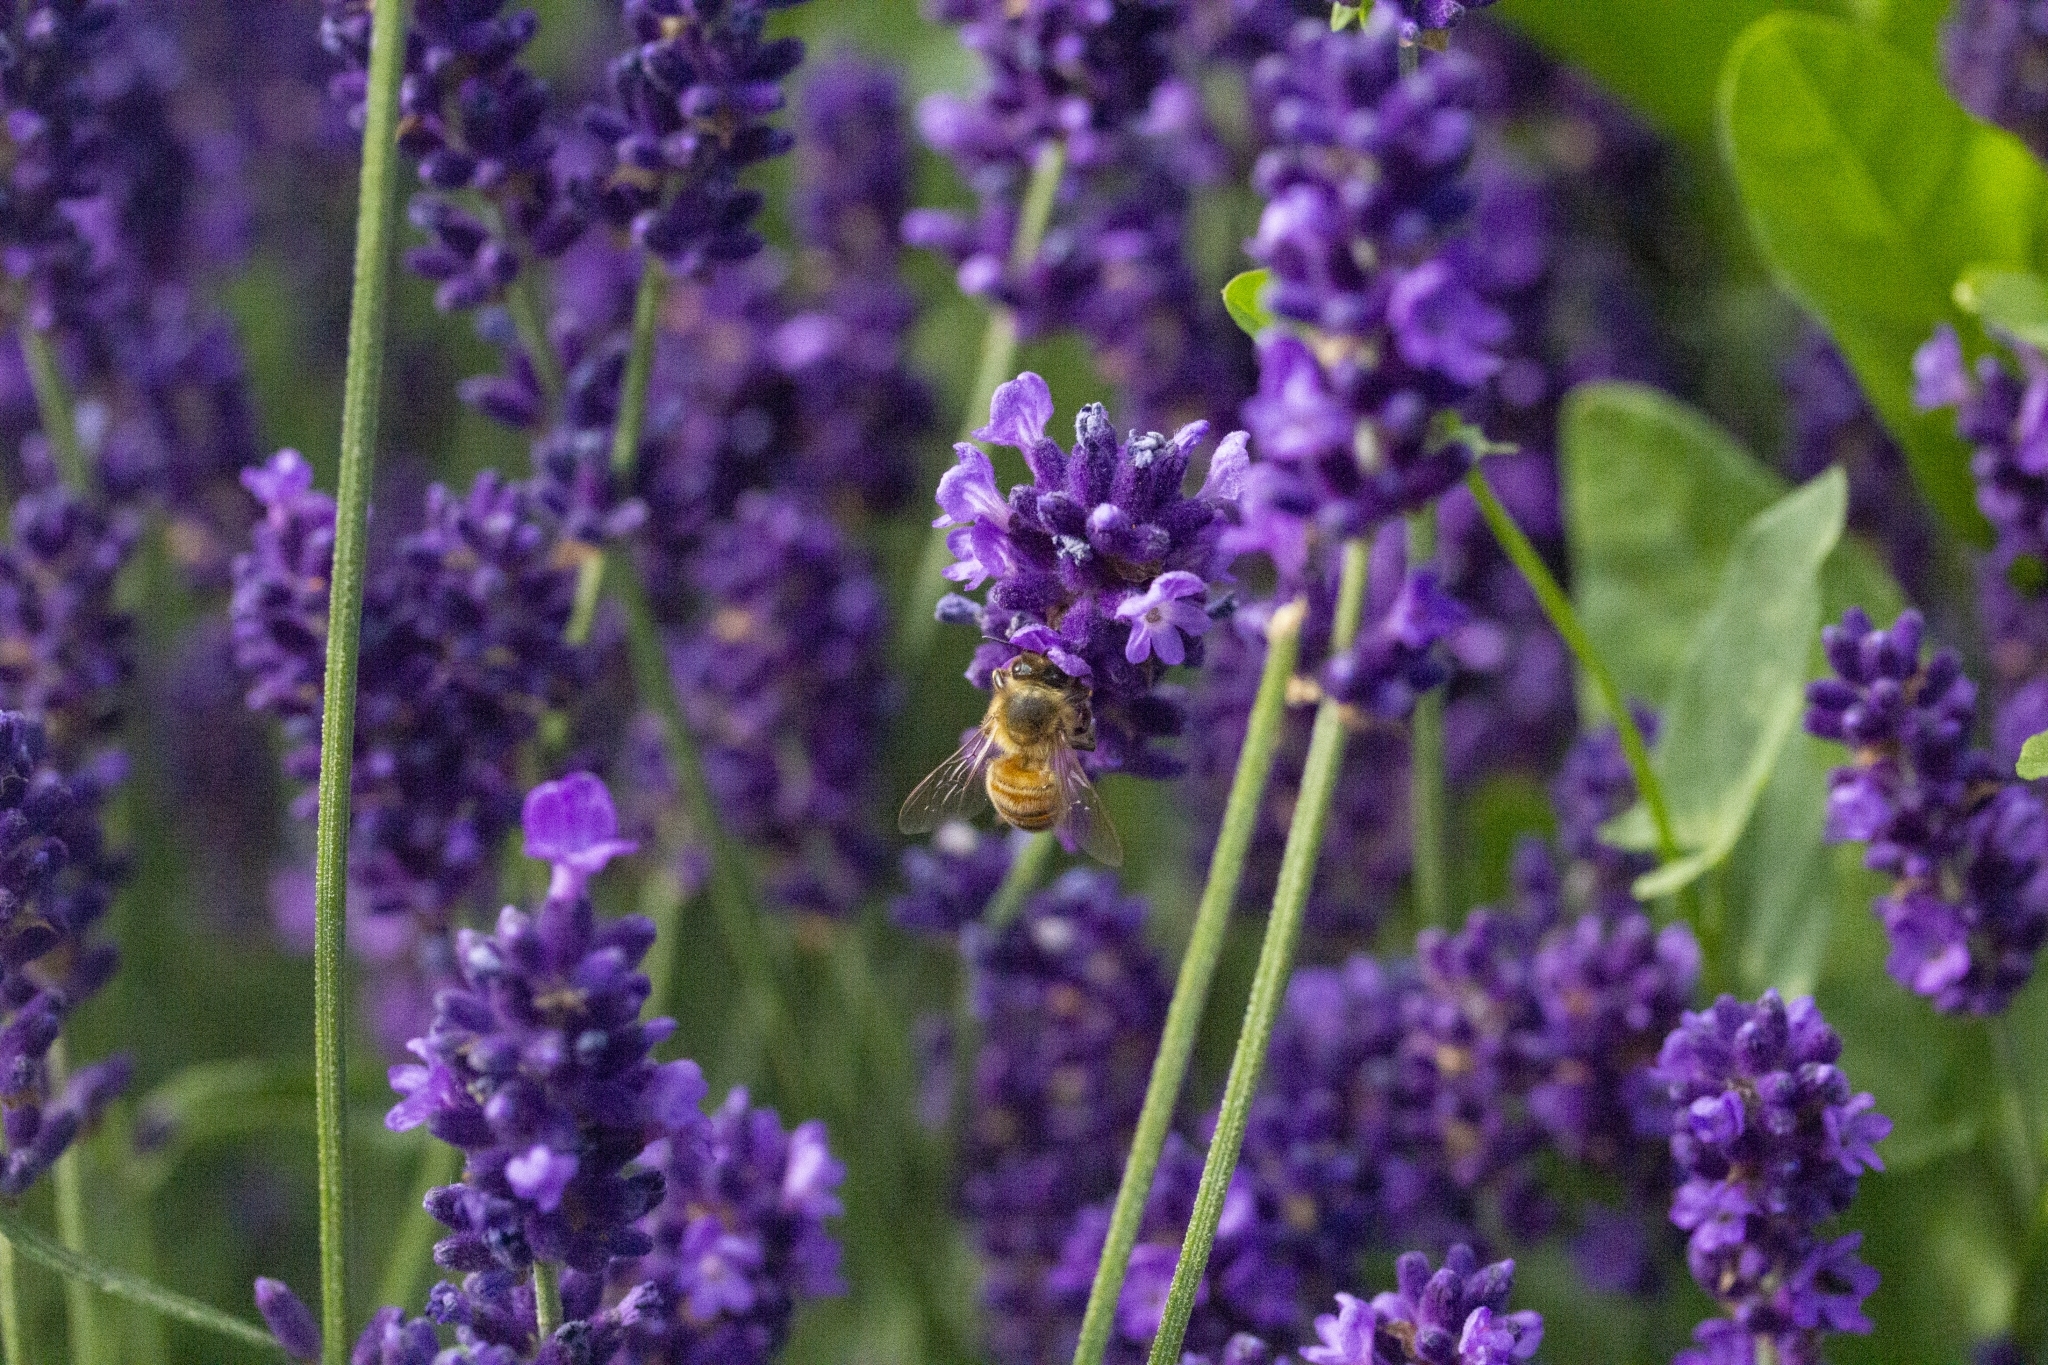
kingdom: Animalia
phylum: Arthropoda
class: Insecta
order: Hymenoptera
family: Apidae
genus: Apis
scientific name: Apis mellifera
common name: Honey bee
